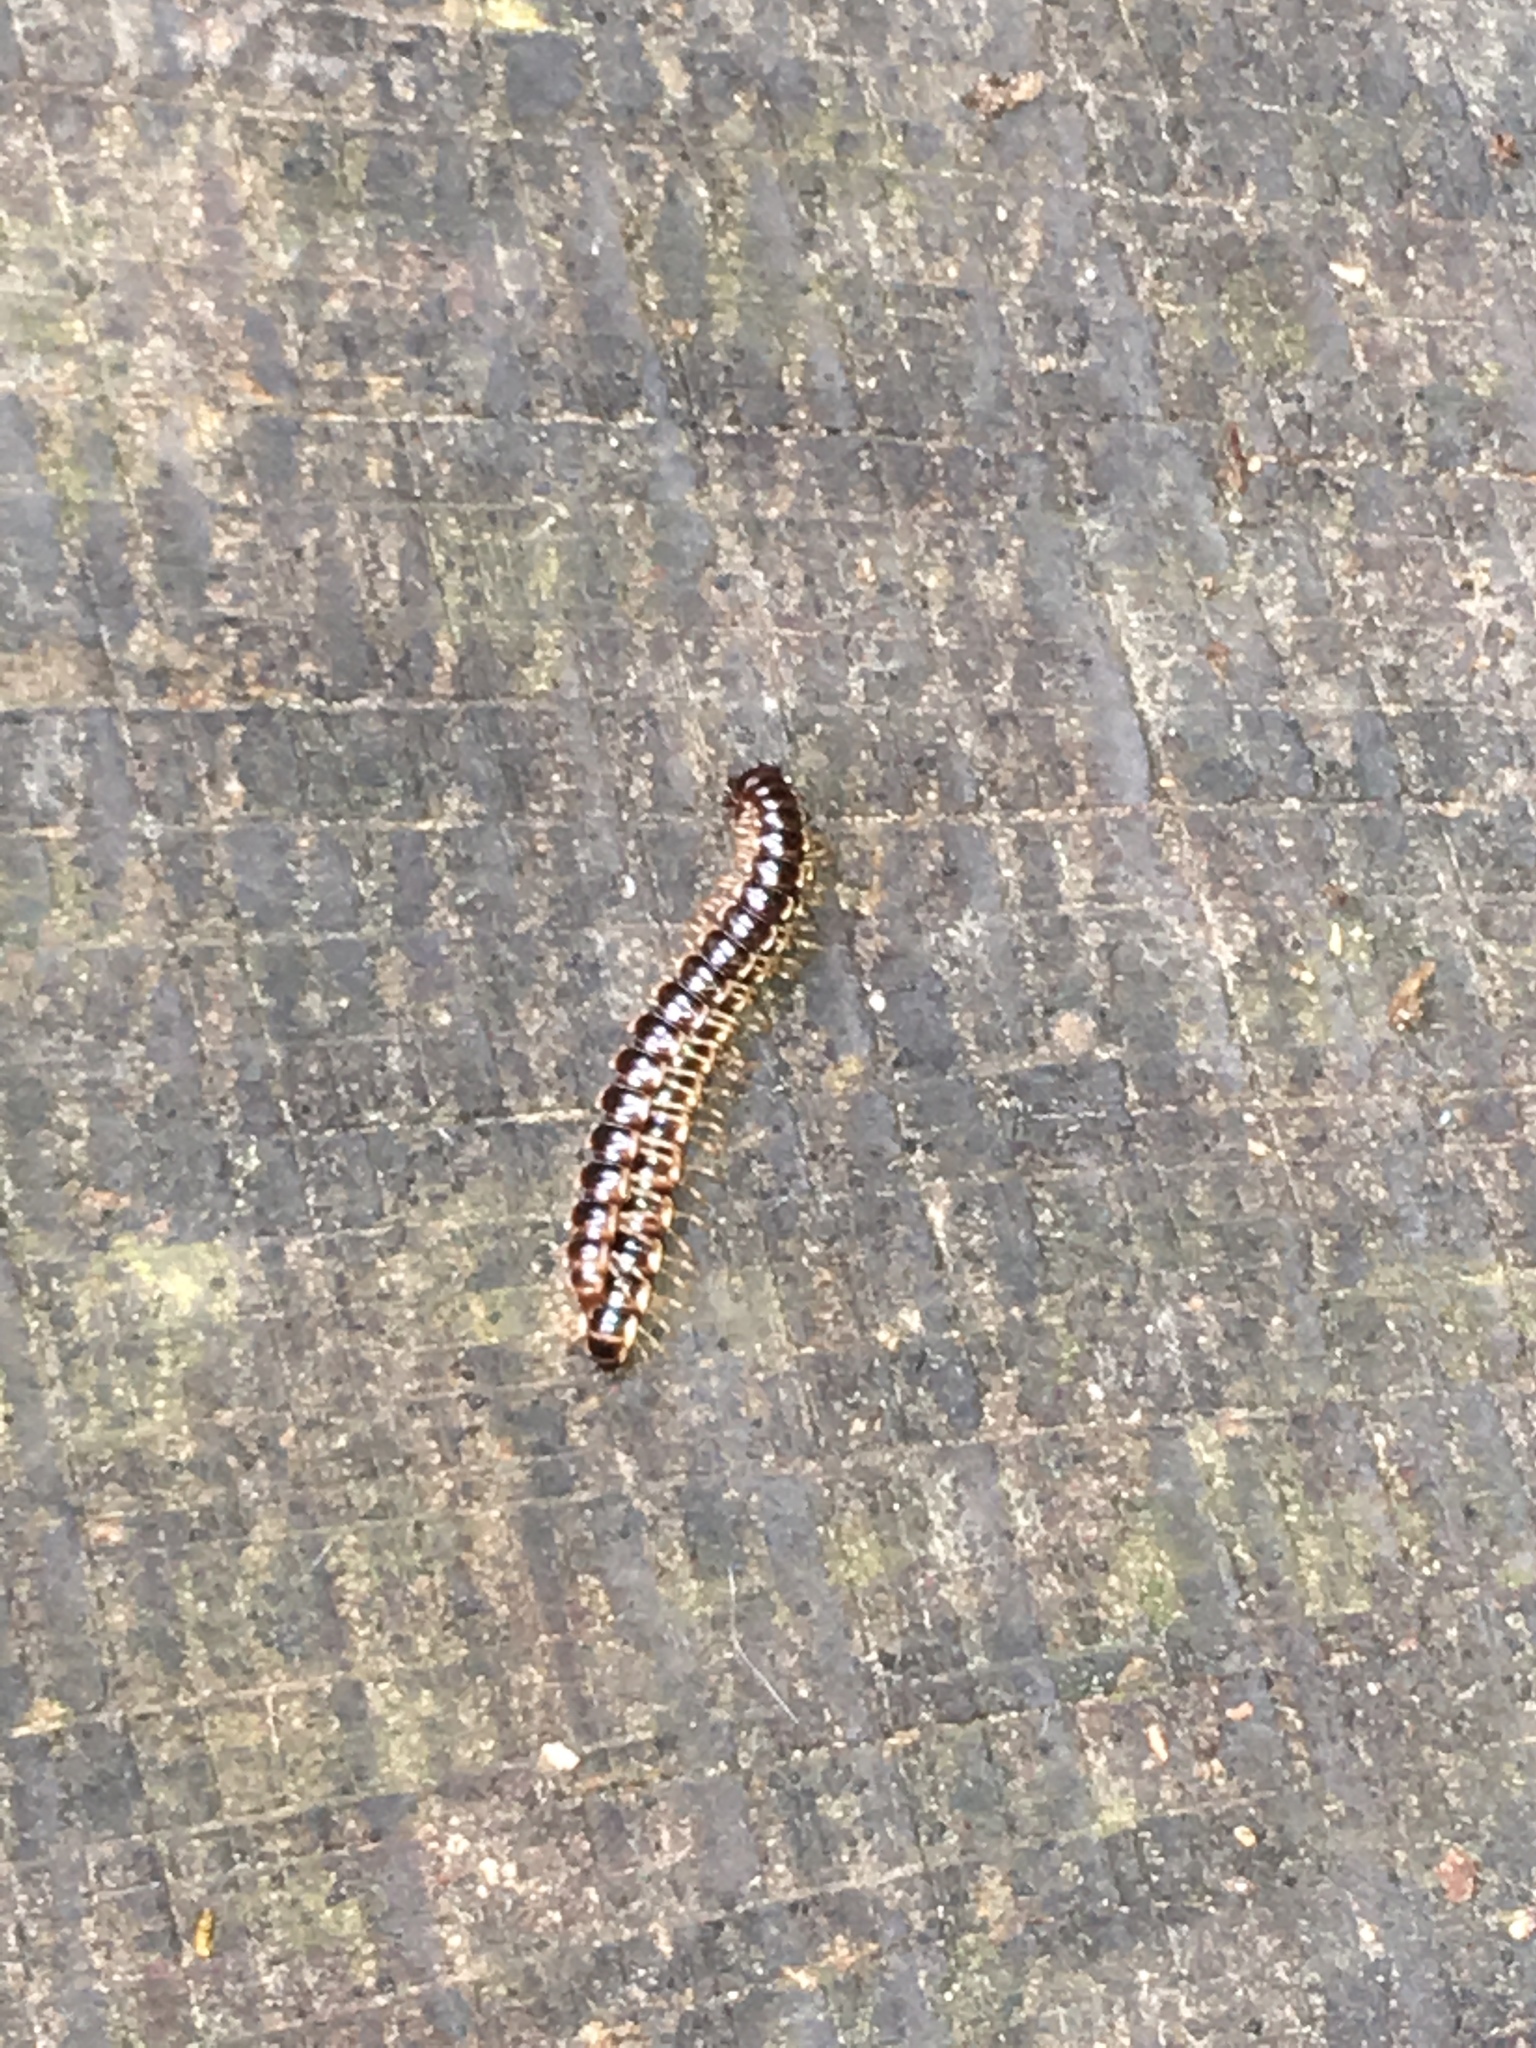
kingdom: Animalia
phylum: Arthropoda
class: Diplopoda
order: Polydesmida
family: Paradoxosomatidae
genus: Oxidus
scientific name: Oxidus gracilis
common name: Greenhouse millipede
